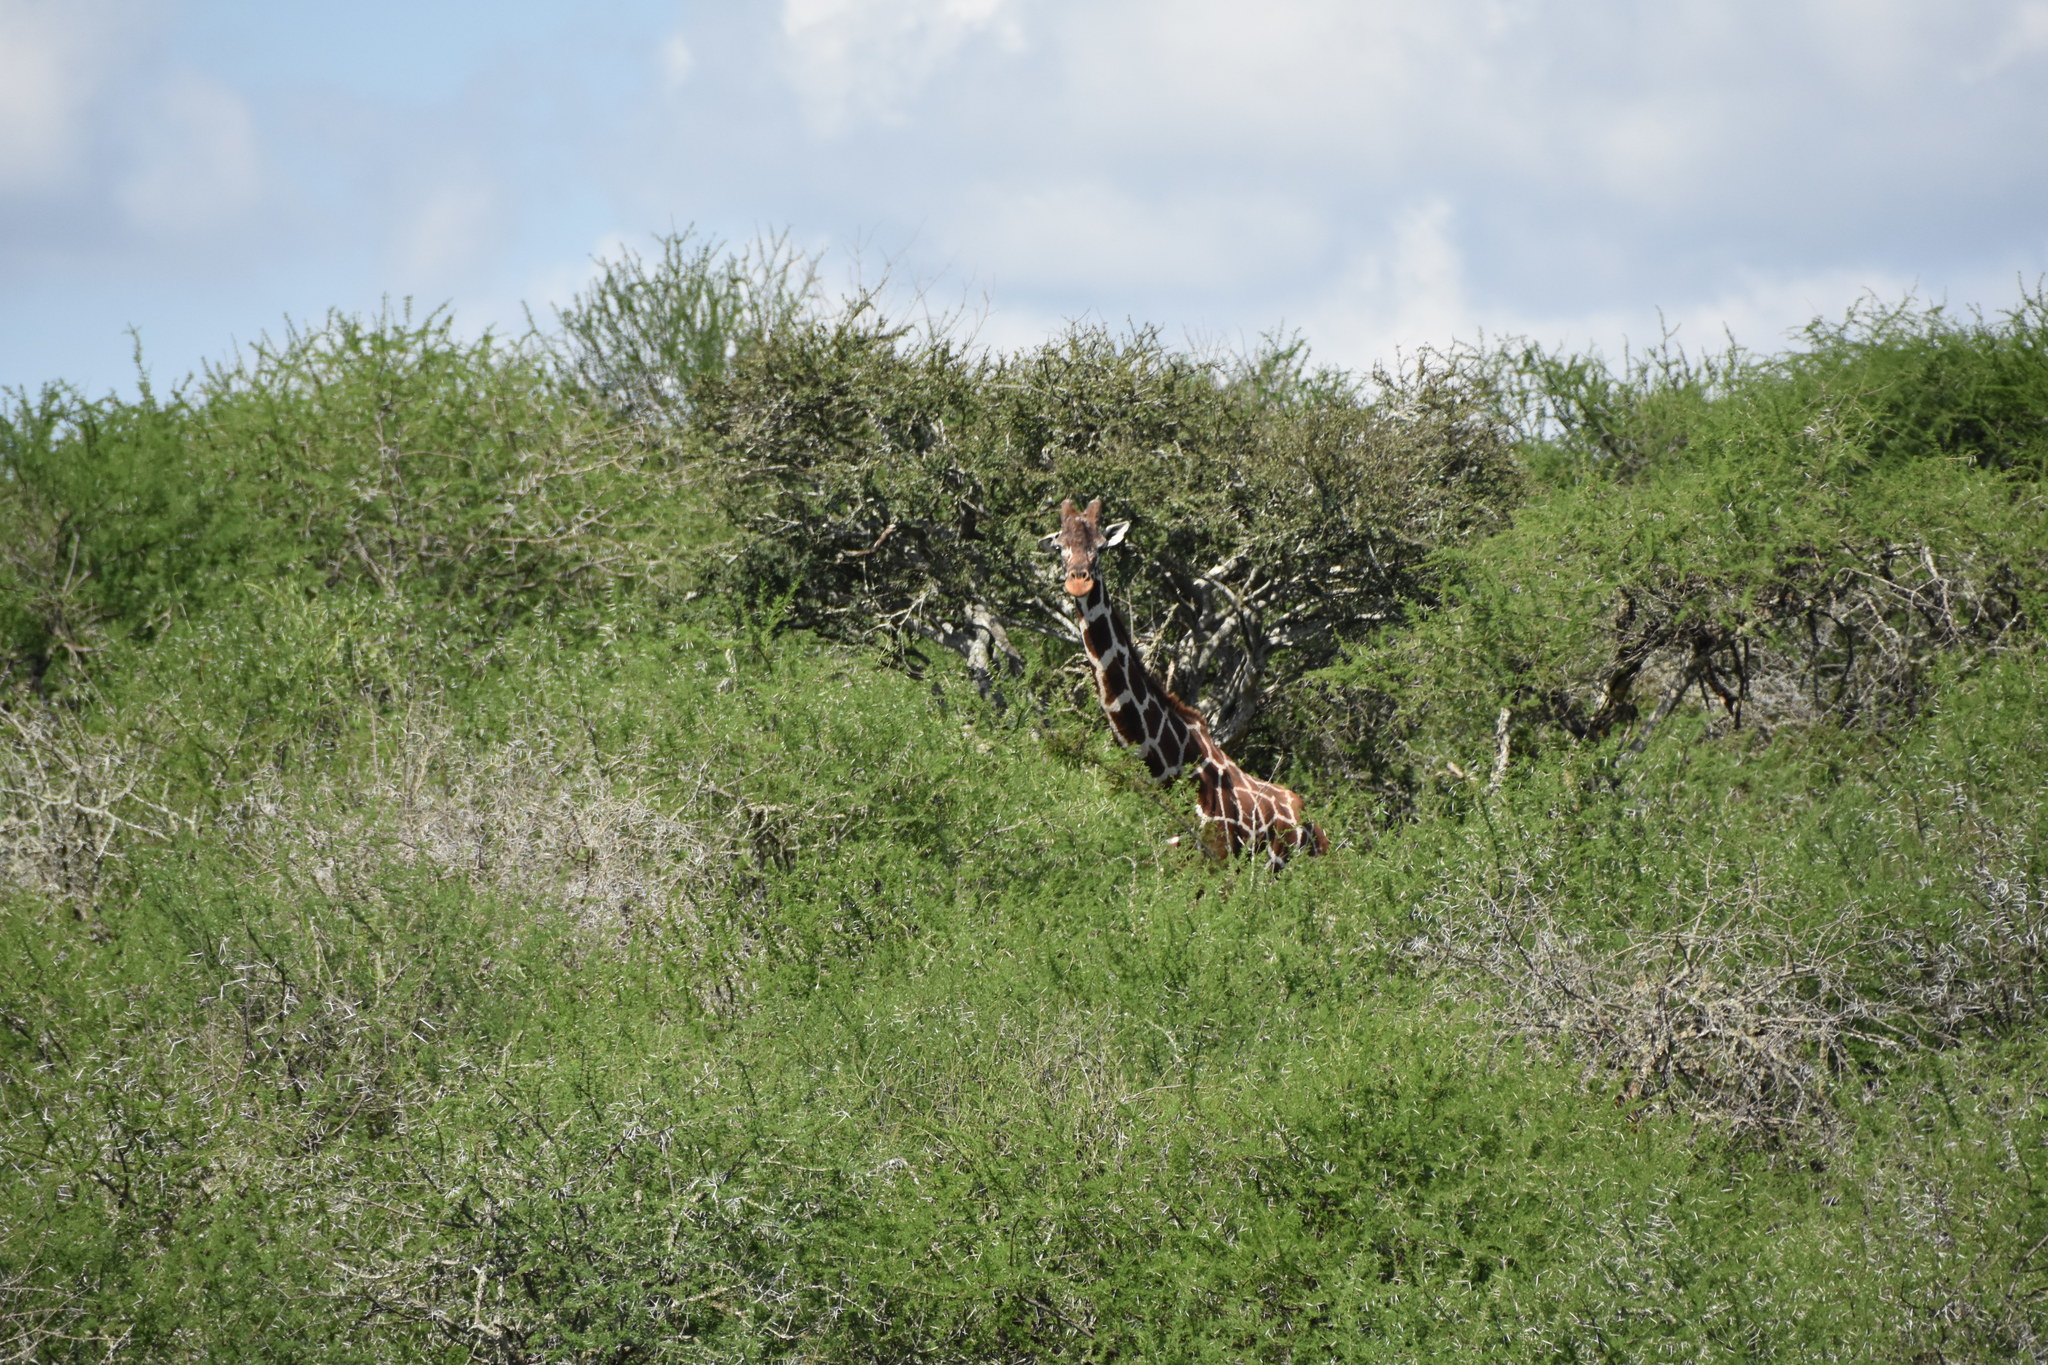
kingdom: Animalia
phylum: Chordata
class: Mammalia
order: Artiodactyla
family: Giraffidae
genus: Giraffa
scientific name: Giraffa reticulata
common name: Reticulated giraffe
